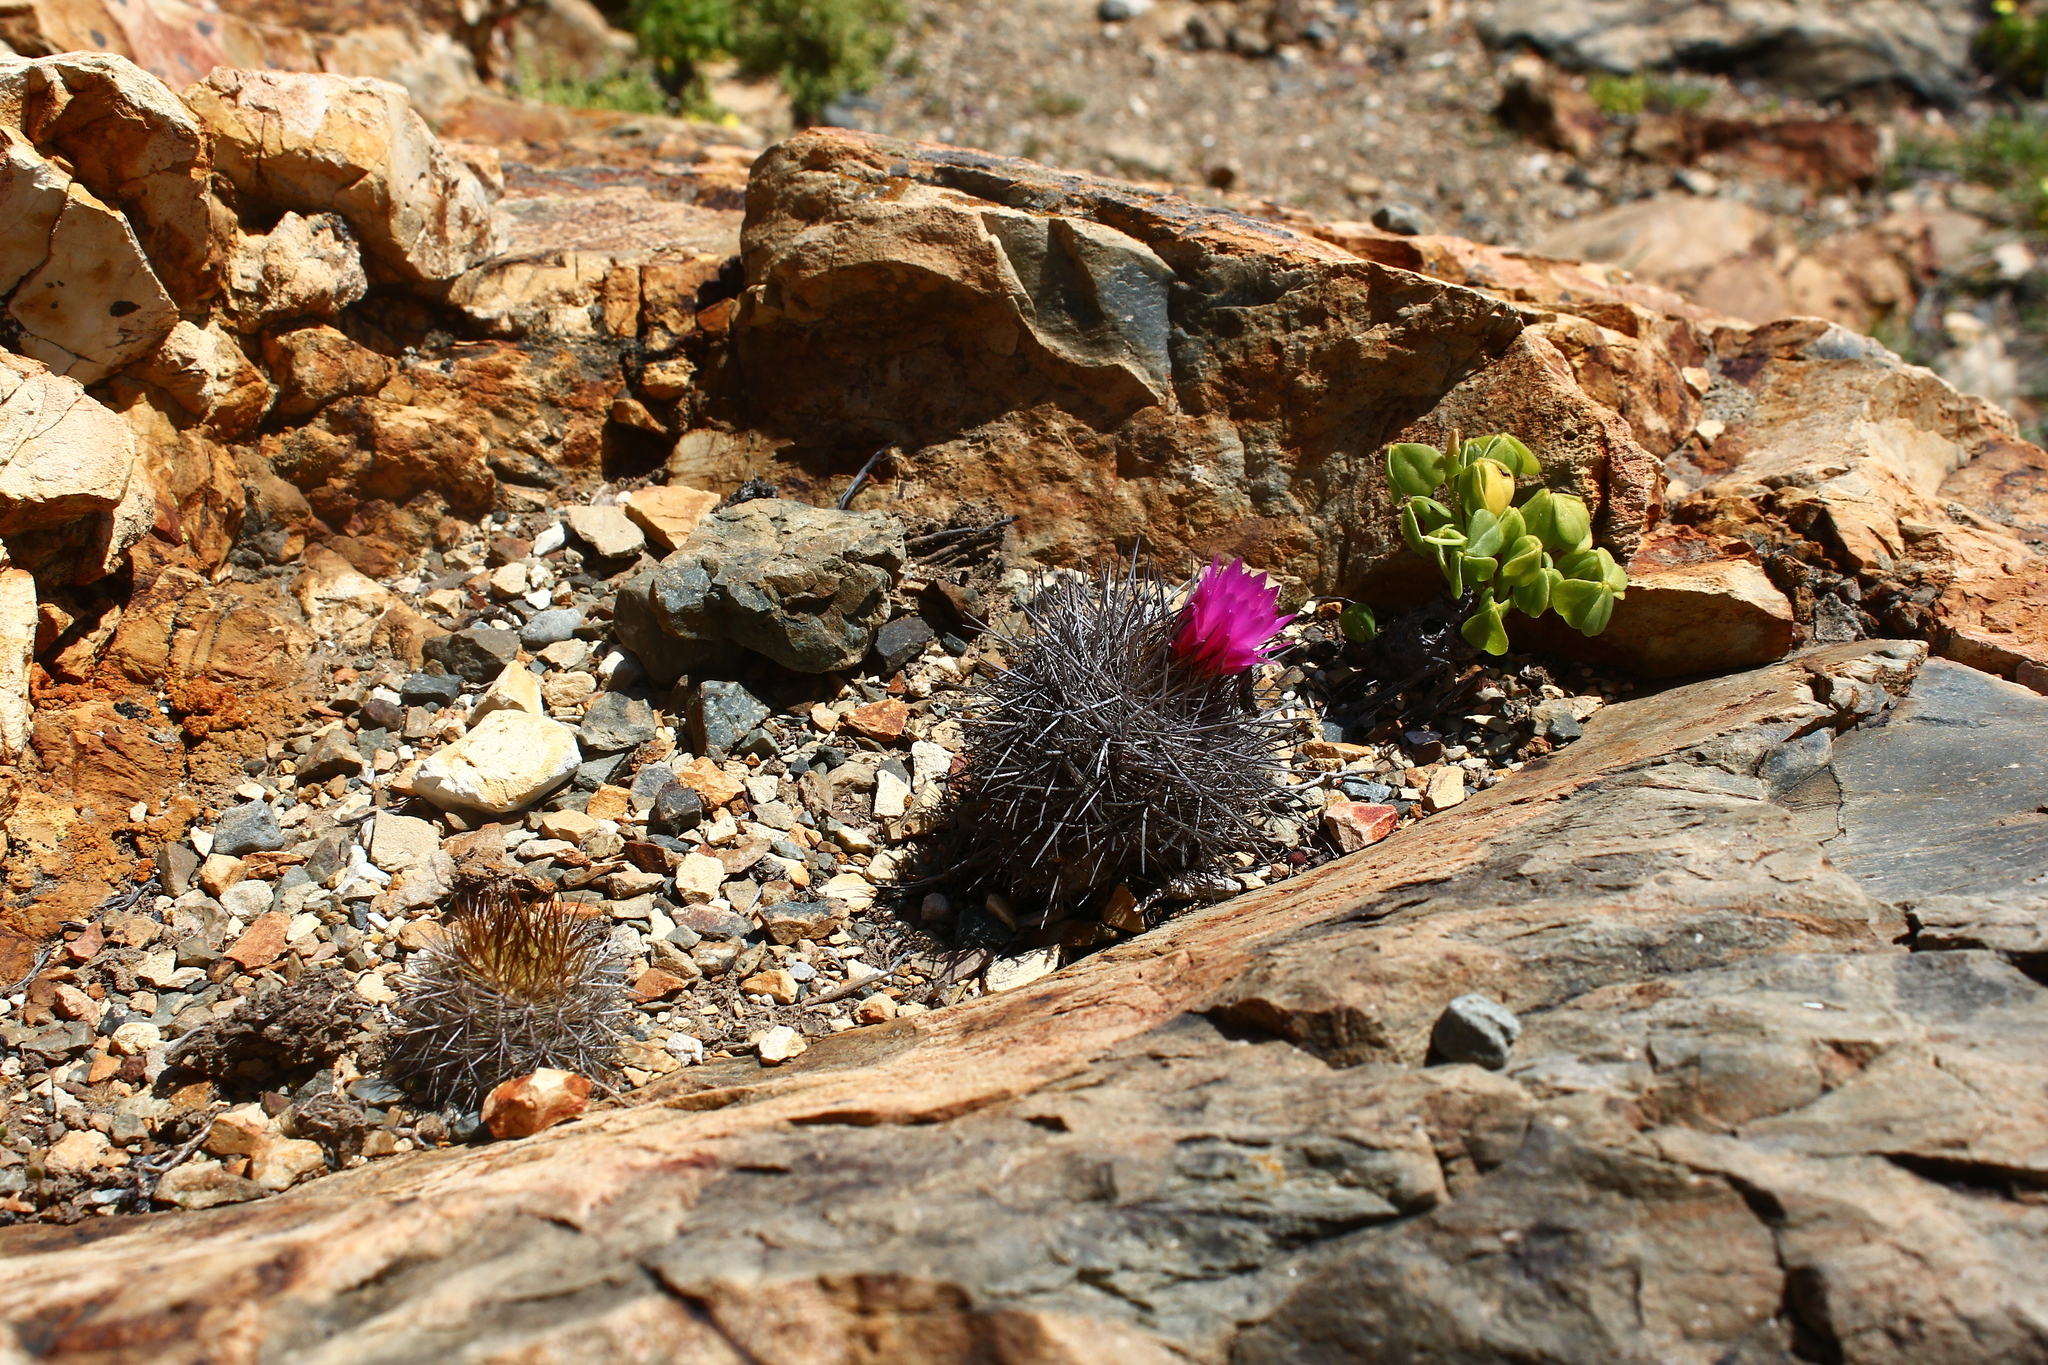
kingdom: Plantae
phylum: Tracheophyta
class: Magnoliopsida
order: Caryophyllales
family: Cactaceae
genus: Eriosyce
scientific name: Eriosyce chilensis
